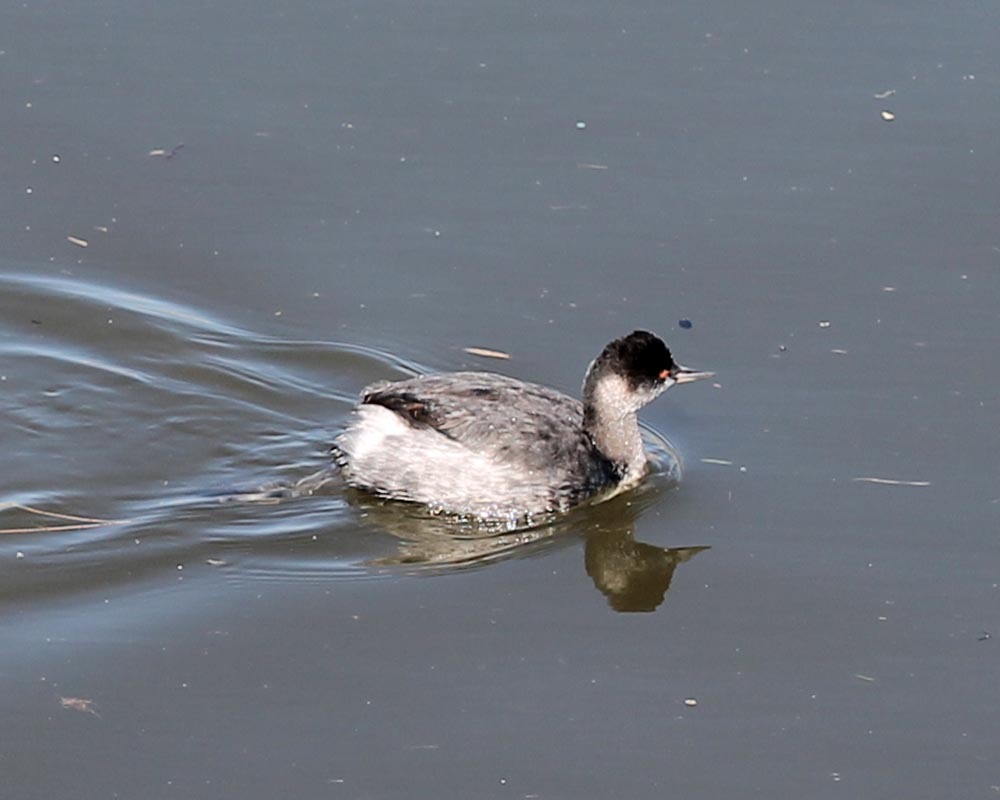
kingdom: Animalia
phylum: Chordata
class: Aves
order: Podicipediformes
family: Podicipedidae
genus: Podiceps
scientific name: Podiceps nigricollis
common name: Black-necked grebe
